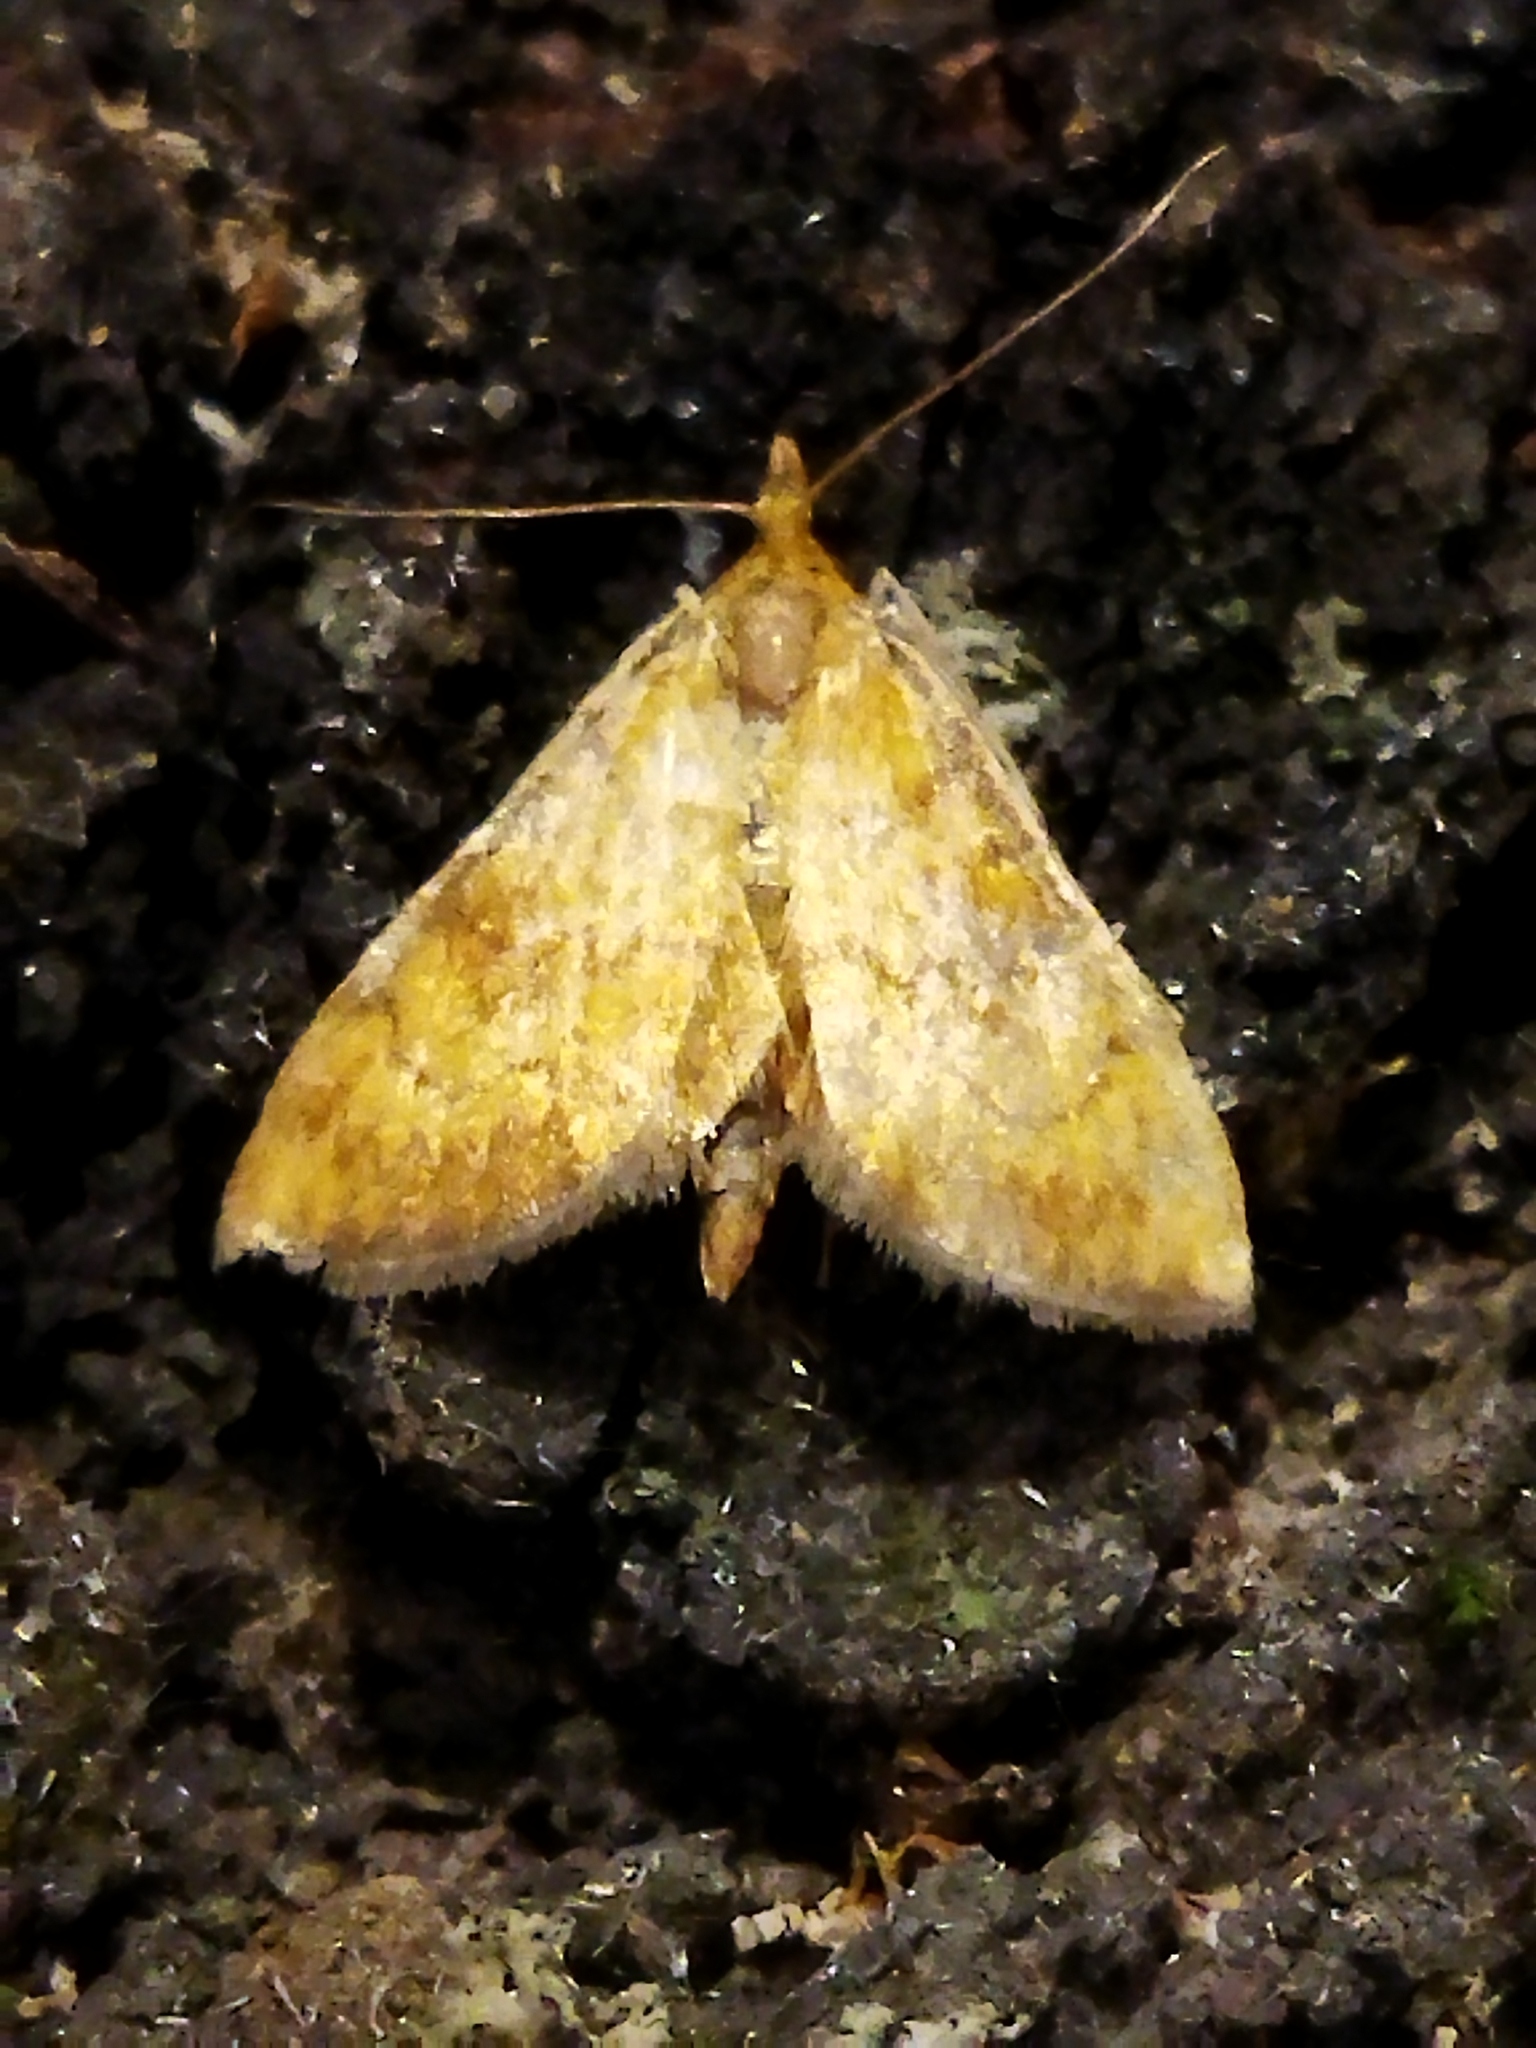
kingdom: Animalia
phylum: Arthropoda
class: Insecta
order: Lepidoptera
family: Crambidae
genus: Ecpyrrhorrhoe
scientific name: Ecpyrrhorrhoe rubiginalis
